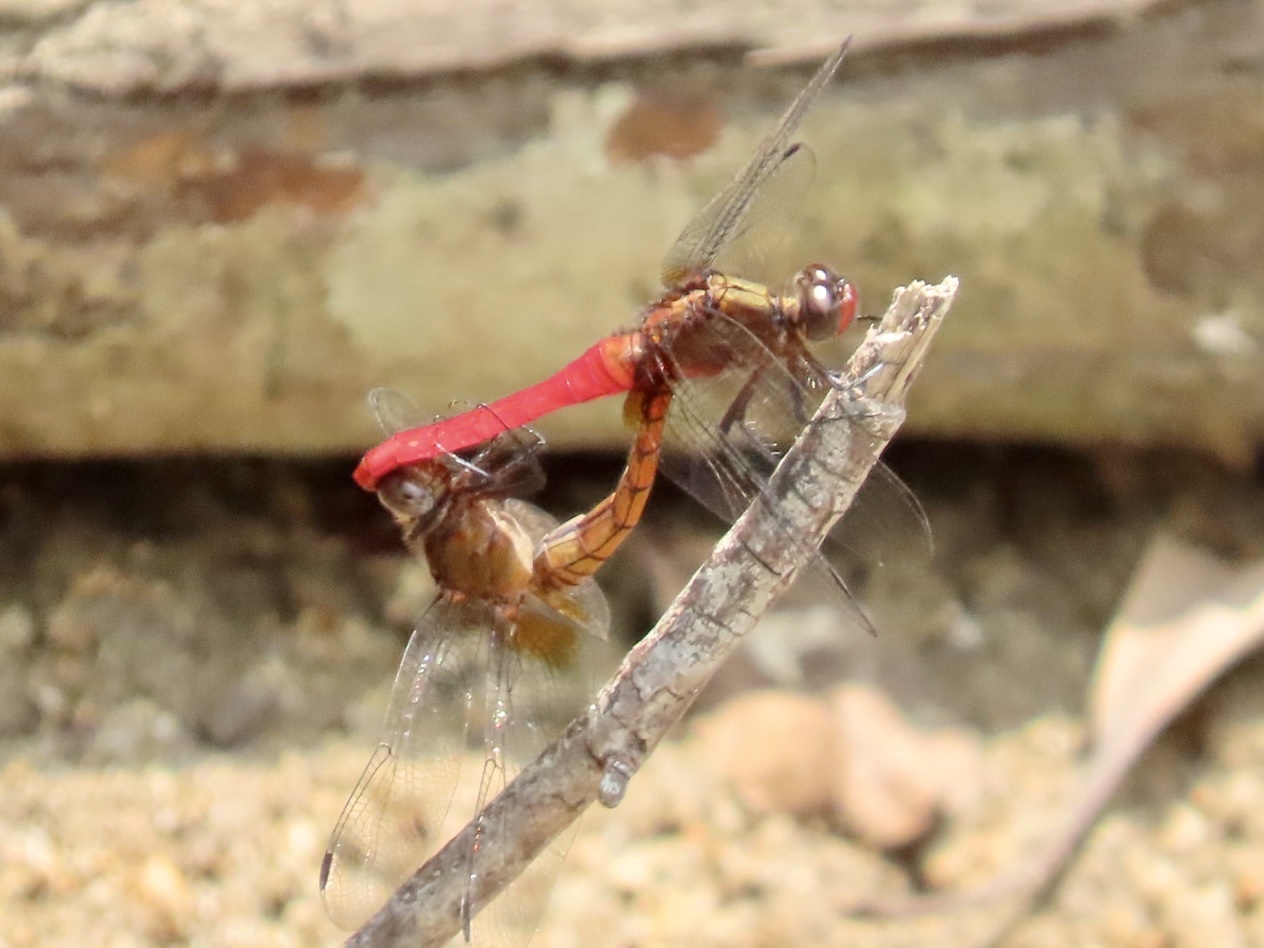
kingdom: Animalia
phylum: Arthropoda
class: Insecta
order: Odonata
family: Libellulidae
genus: Orthetrum
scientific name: Orthetrum chrysis
